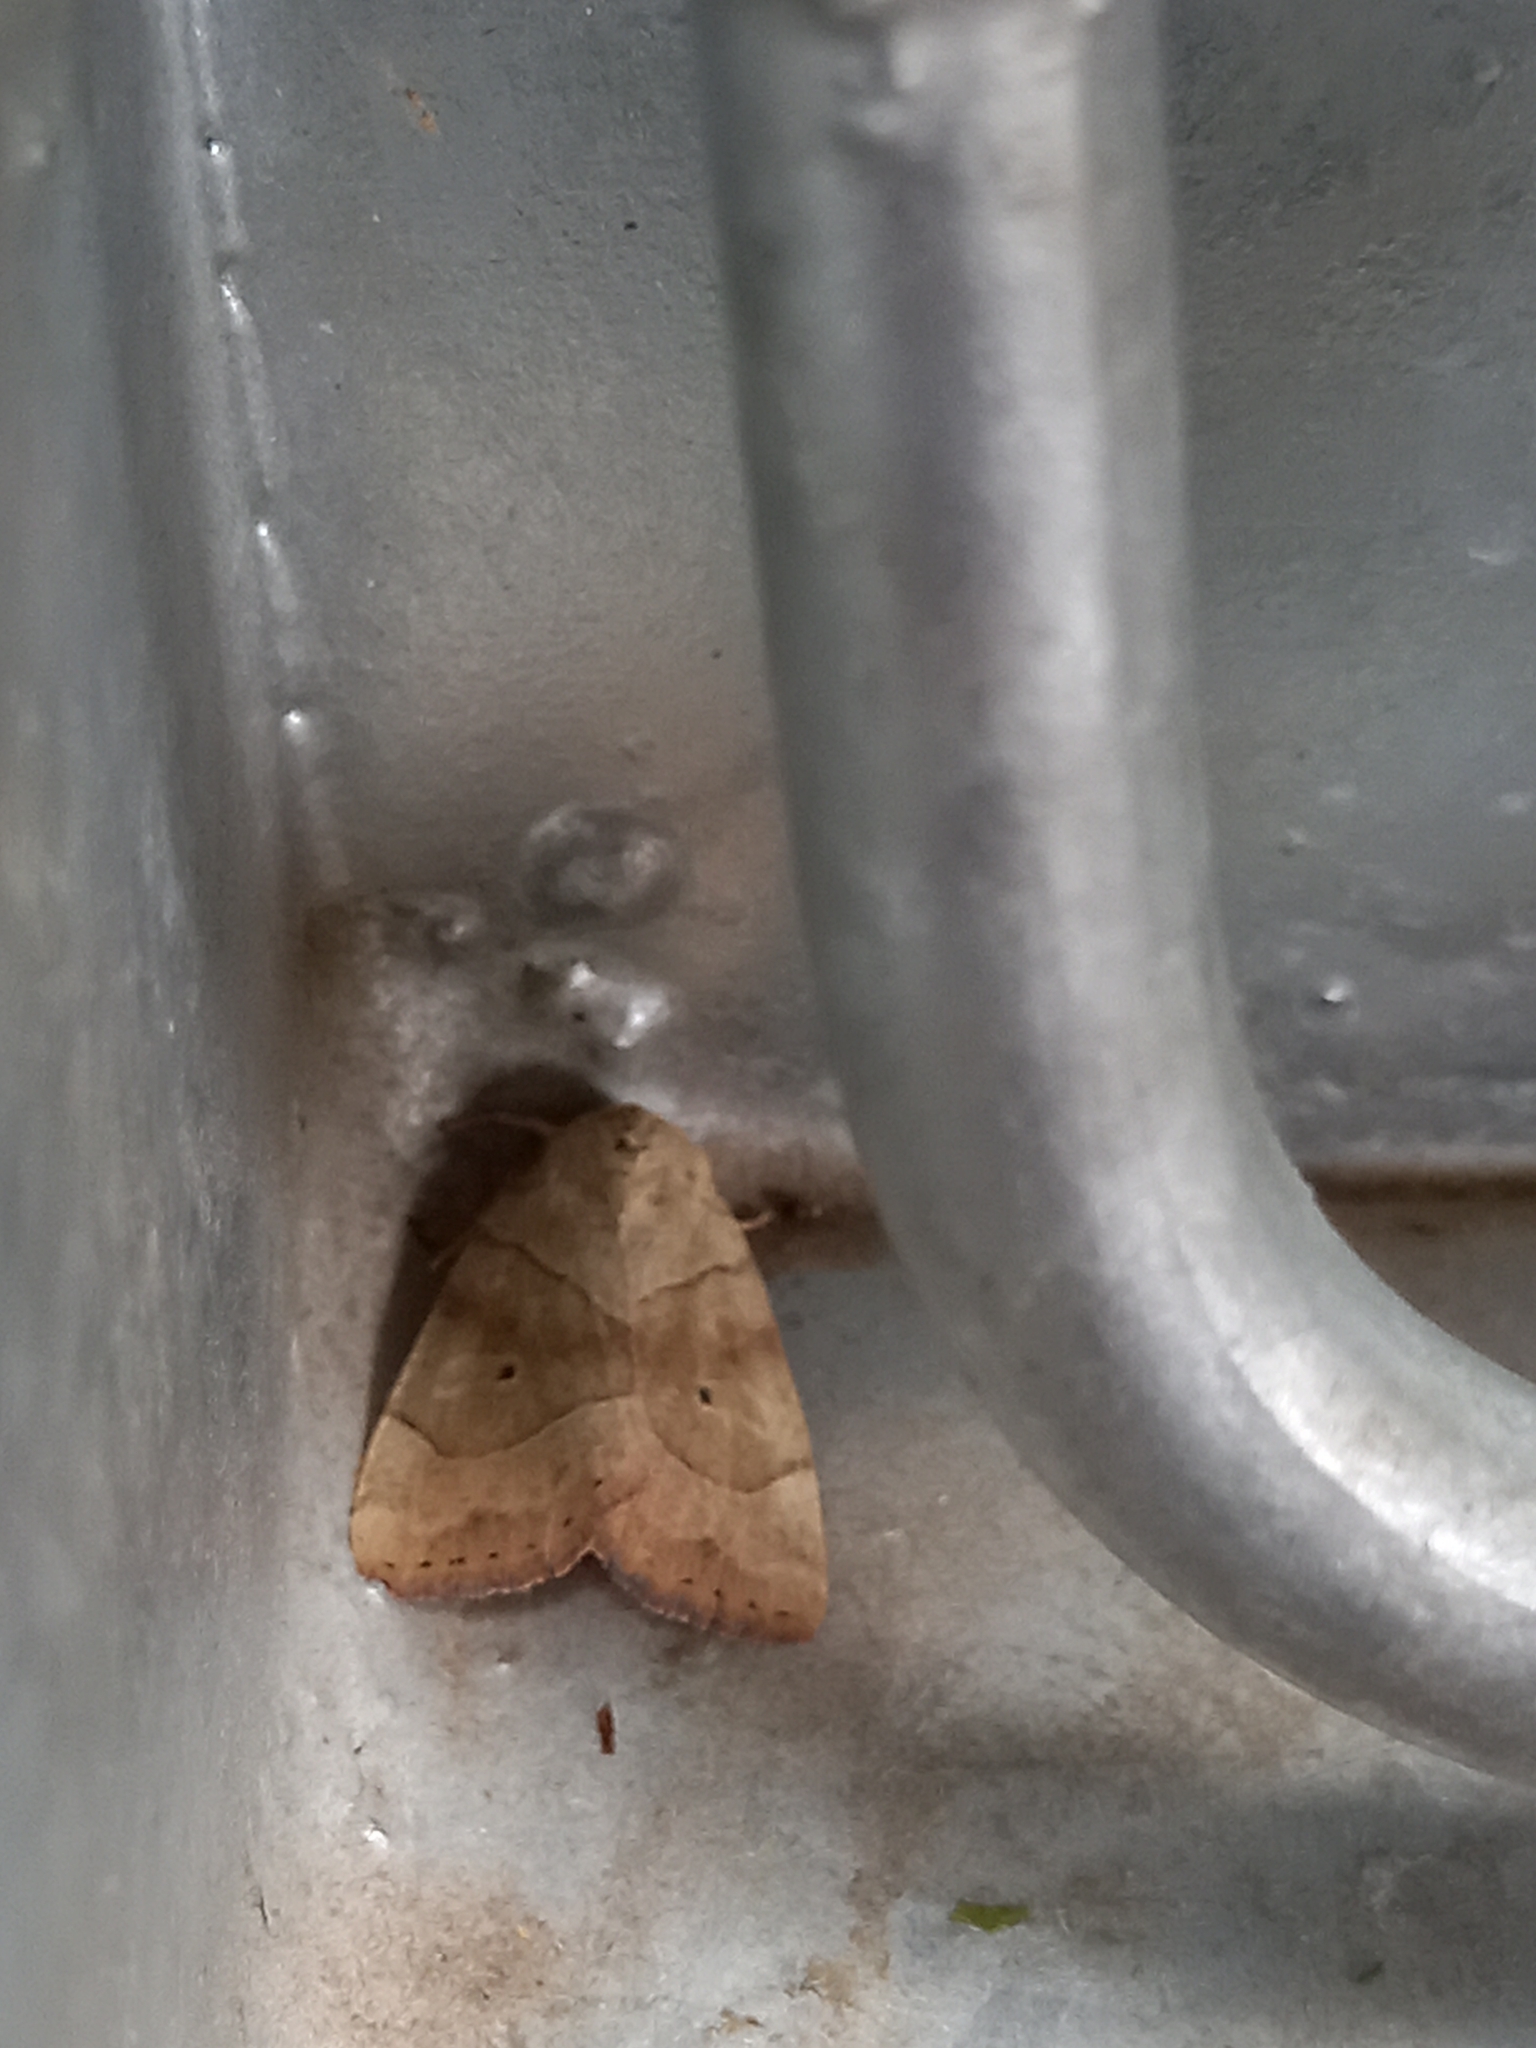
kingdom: Animalia
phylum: Arthropoda
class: Insecta
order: Lepidoptera
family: Noctuidae
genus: Cosmia
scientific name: Cosmia trapezina
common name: Dun-bar
